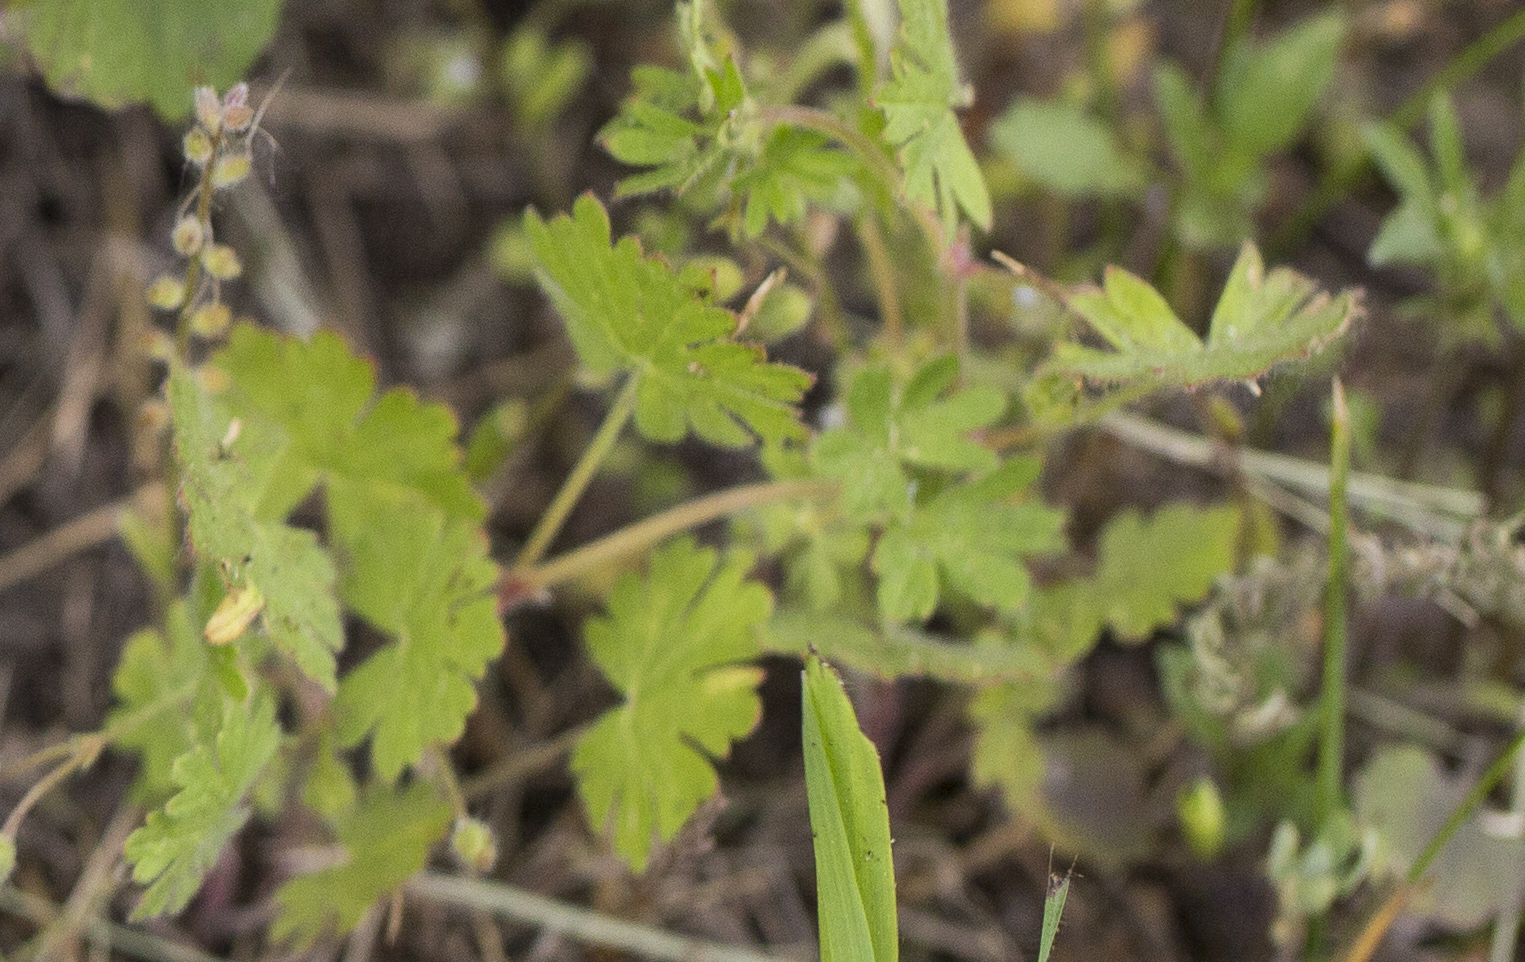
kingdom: Plantae
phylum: Tracheophyta
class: Magnoliopsida
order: Geraniales
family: Geraniaceae
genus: Geranium
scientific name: Geranium pusillum
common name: Small geranium
